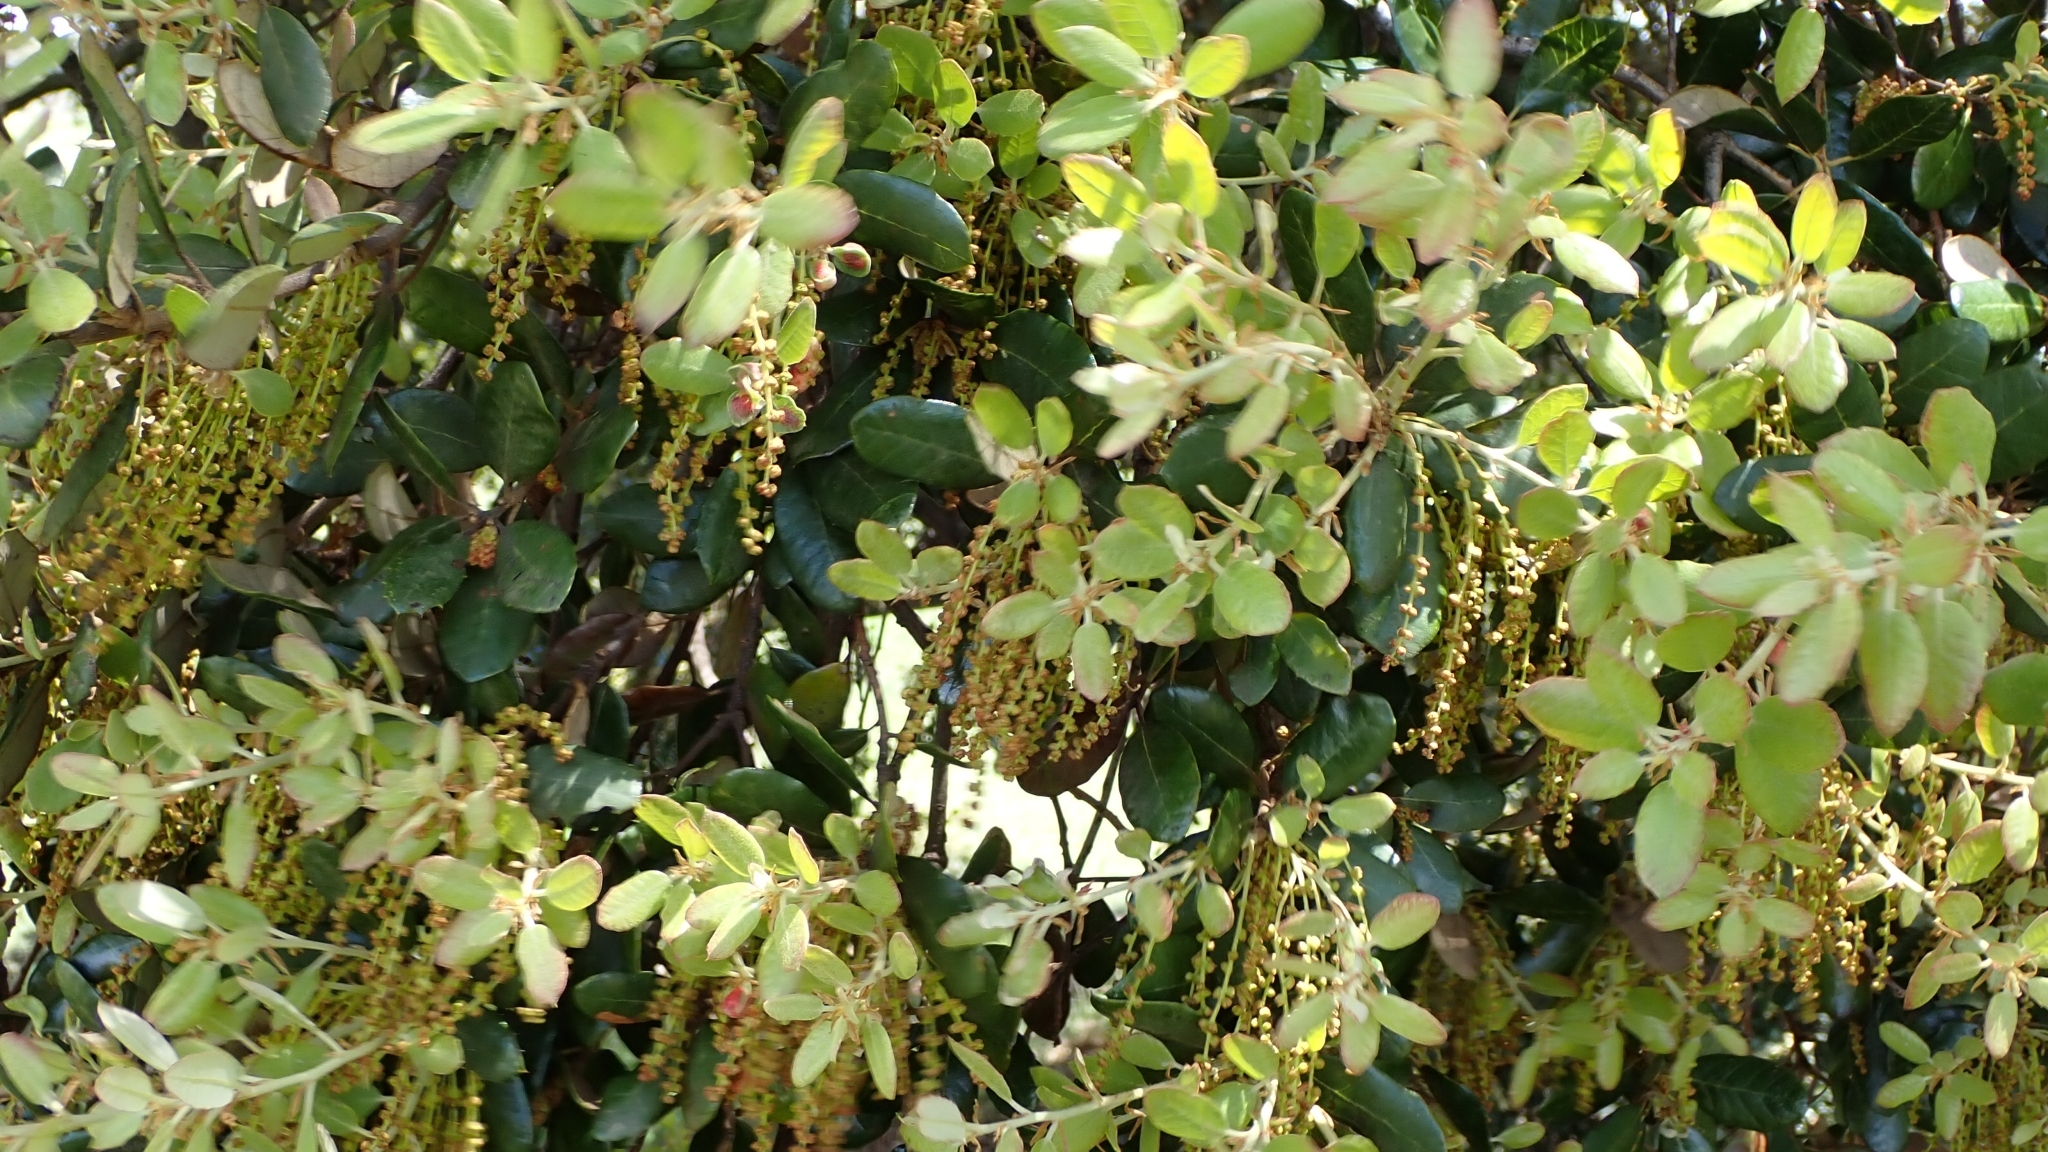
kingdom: Plantae
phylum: Tracheophyta
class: Magnoliopsida
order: Fagales
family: Fagaceae
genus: Quercus
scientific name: Quercus rotundifolia
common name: Holm oak
